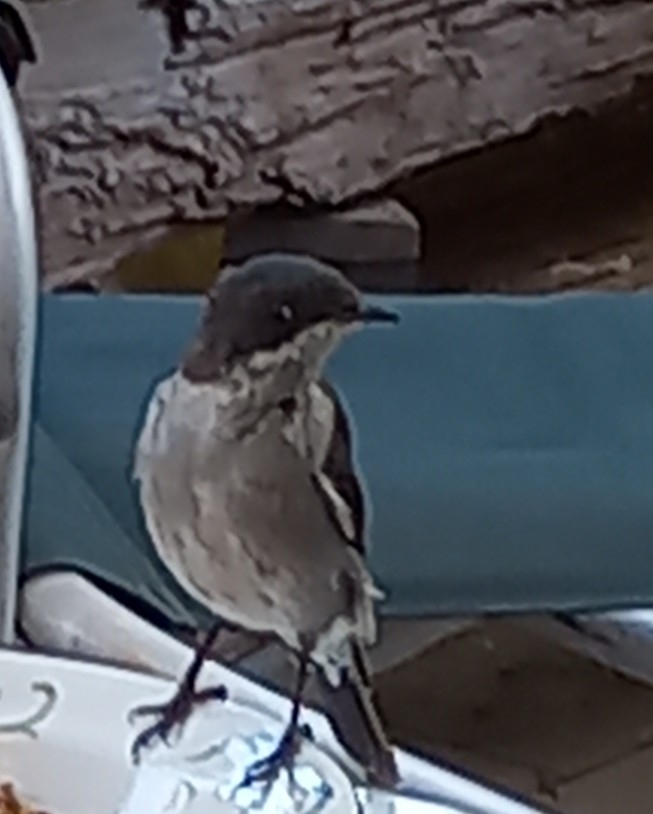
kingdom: Animalia
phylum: Chordata
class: Aves
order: Passeriformes
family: Muscicapidae
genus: Sigelus
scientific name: Sigelus silens
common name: Fiscal flycatcher
